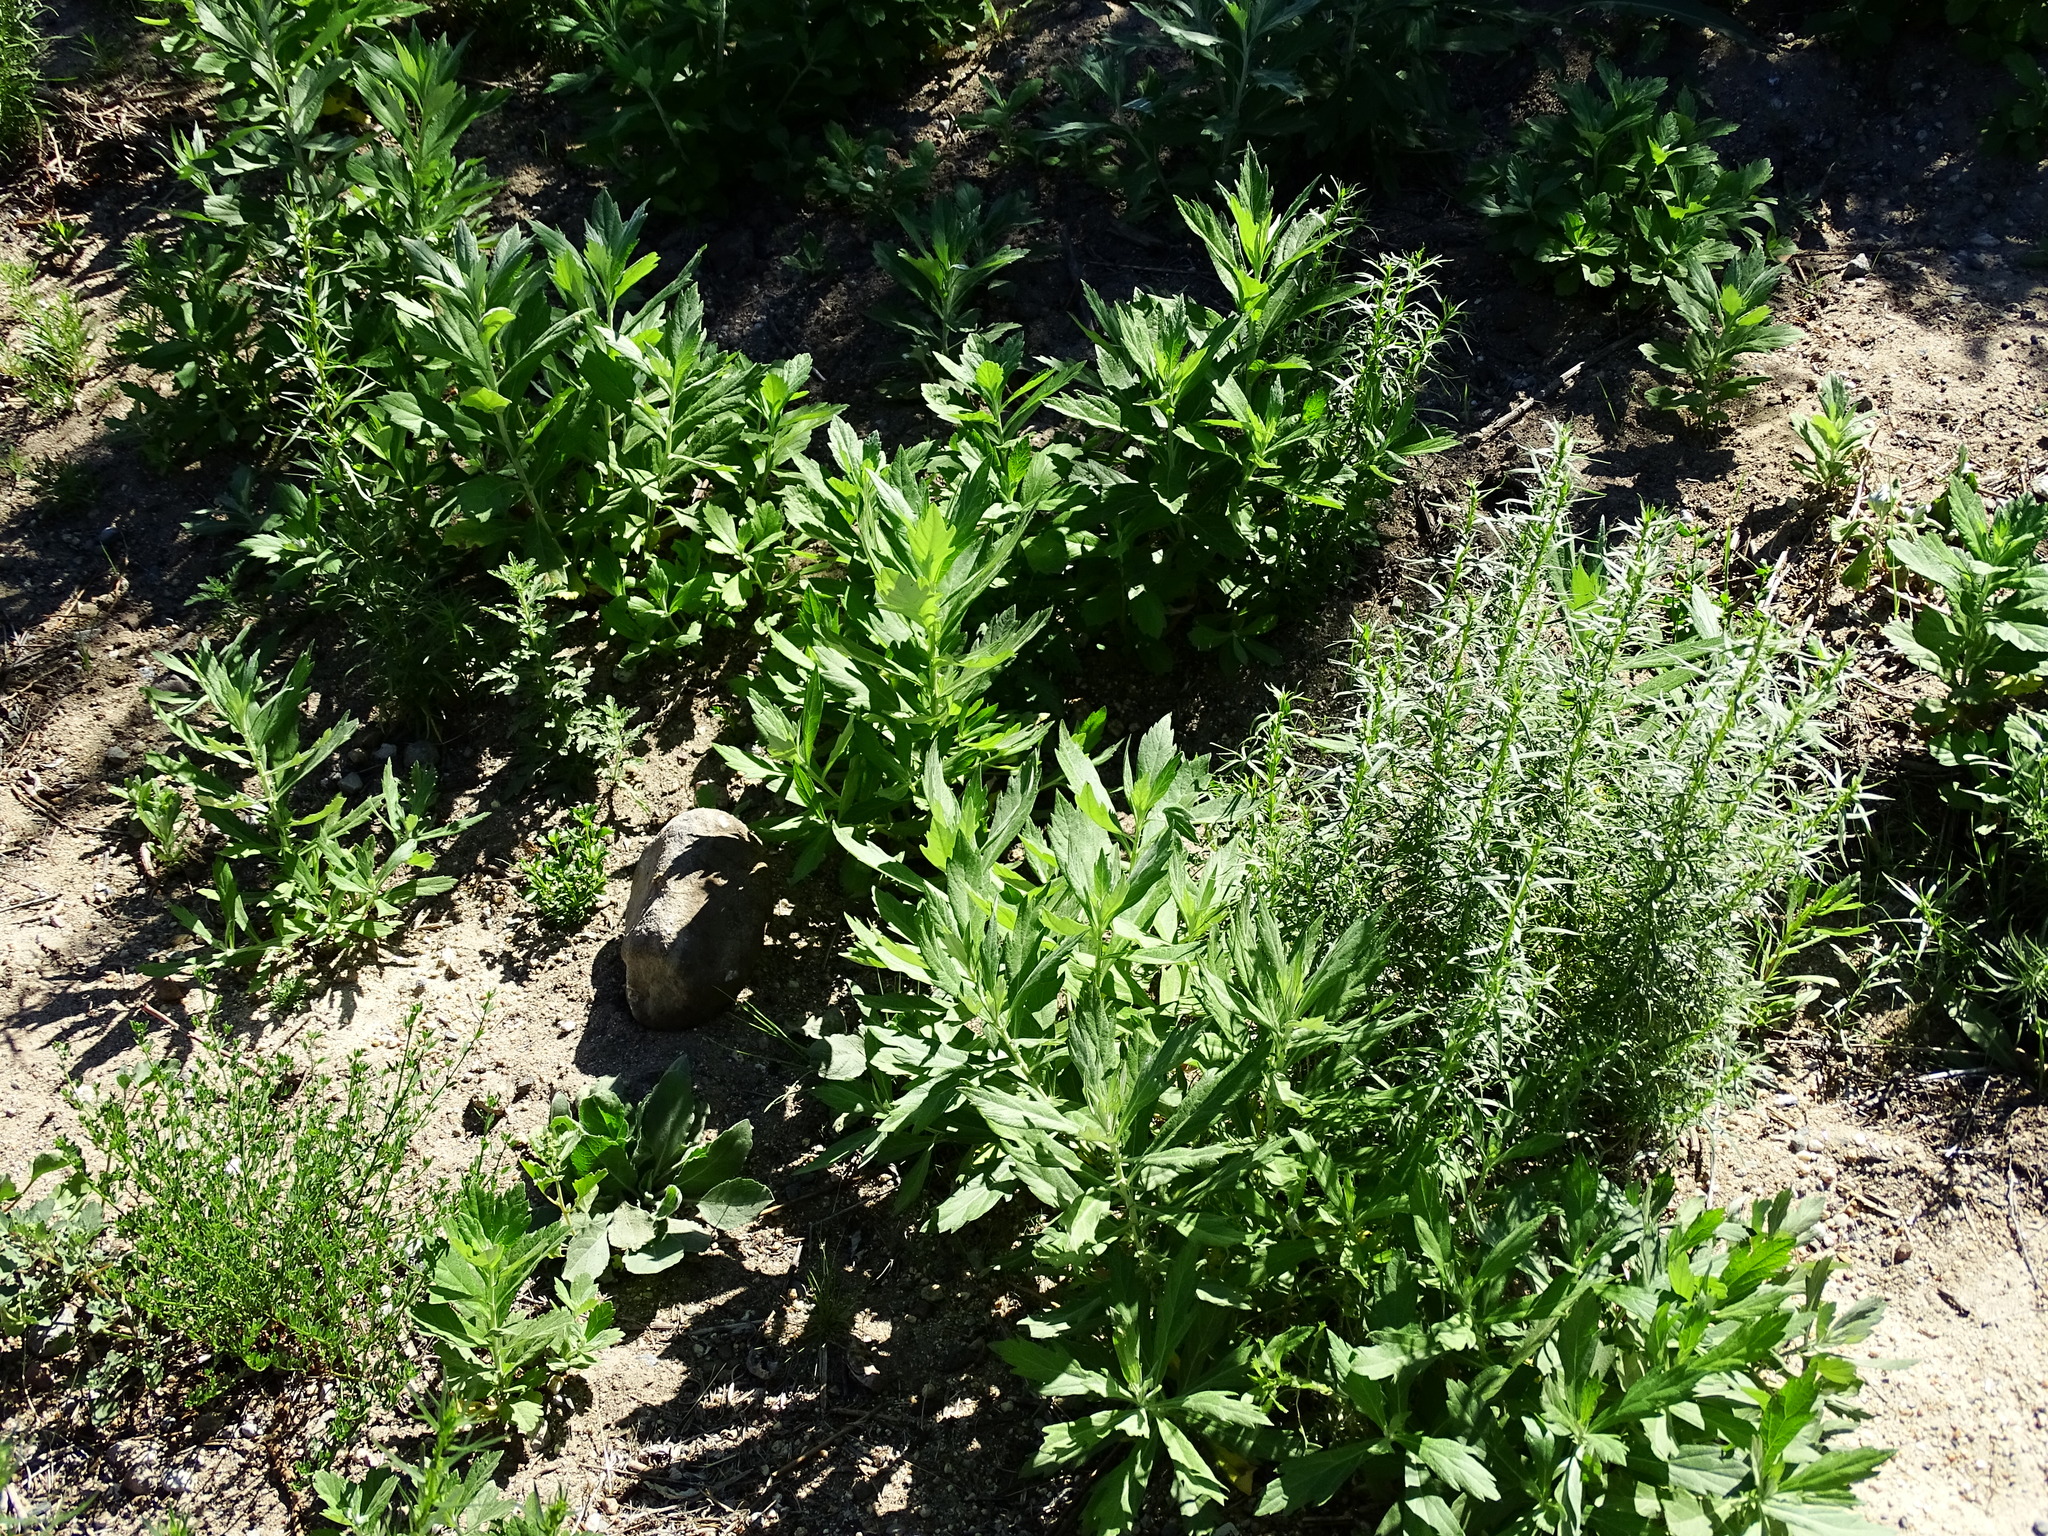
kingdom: Plantae
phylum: Tracheophyta
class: Magnoliopsida
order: Asterales
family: Asteraceae
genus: Artemisia
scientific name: Artemisia douglasiana
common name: Northwest mugwort
